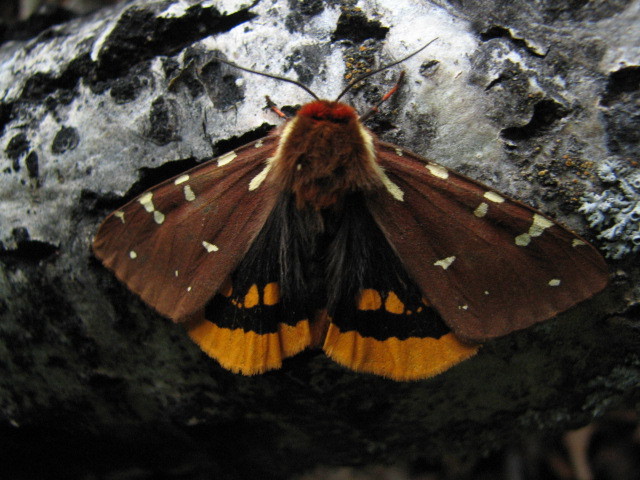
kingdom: Animalia
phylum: Arthropoda
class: Insecta
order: Lepidoptera
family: Erebidae
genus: Arctia
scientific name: Arctia parthenos
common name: St. lawrence tiger moth
